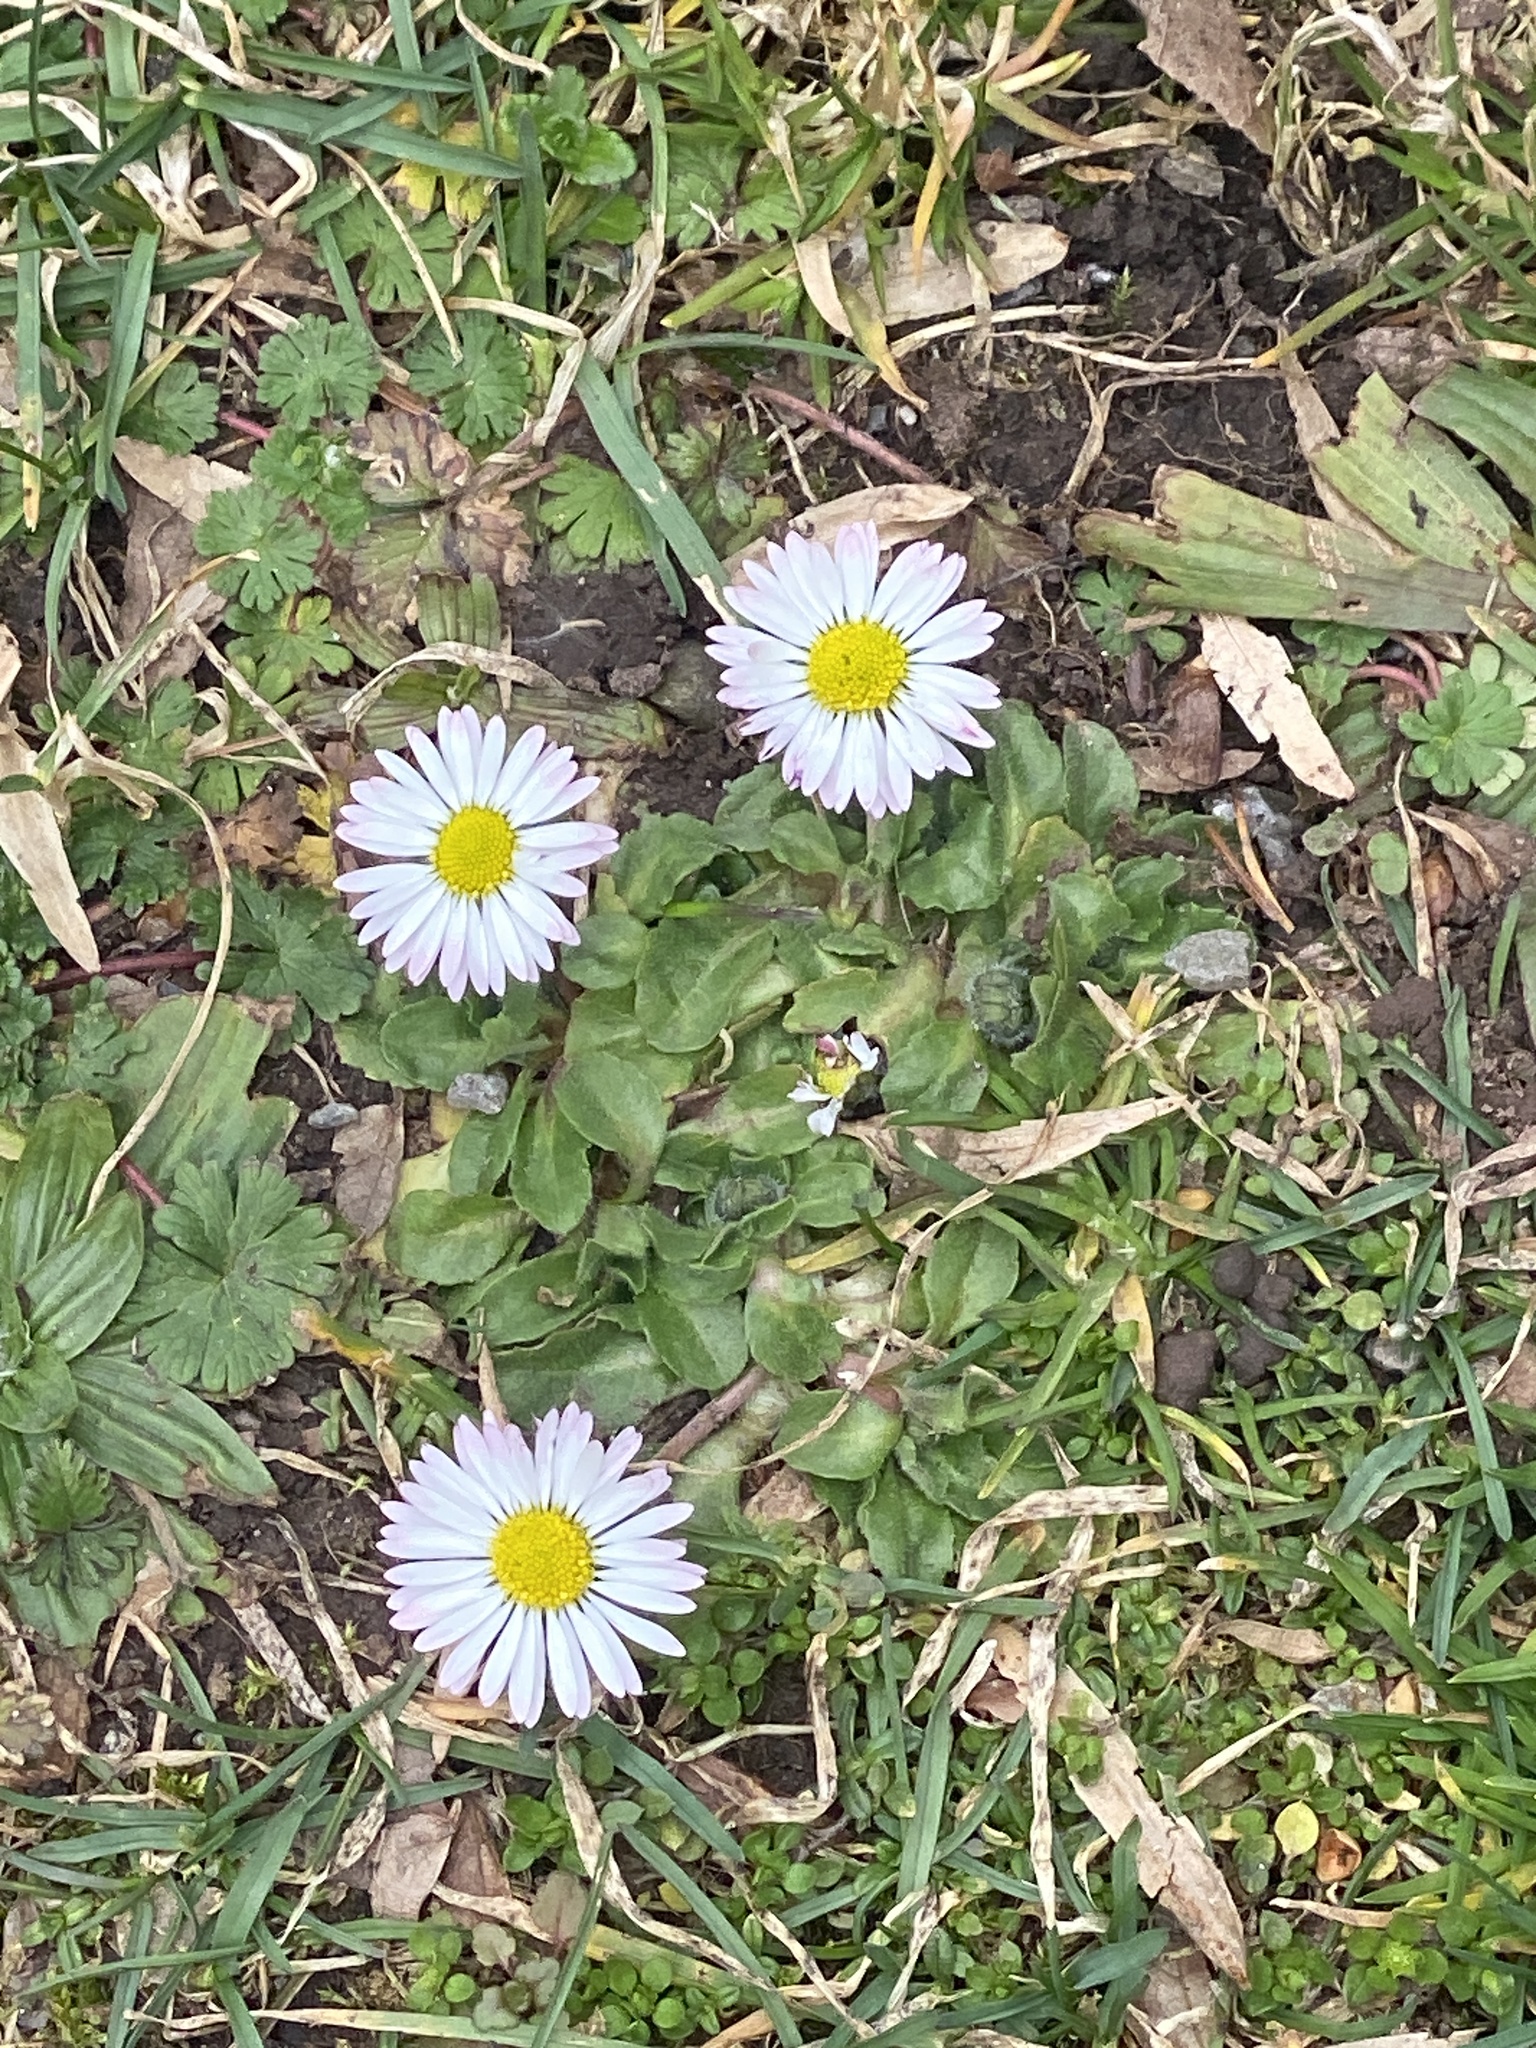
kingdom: Plantae
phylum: Tracheophyta
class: Magnoliopsida
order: Asterales
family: Asteraceae
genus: Bellis
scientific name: Bellis perennis
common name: Lawndaisy
